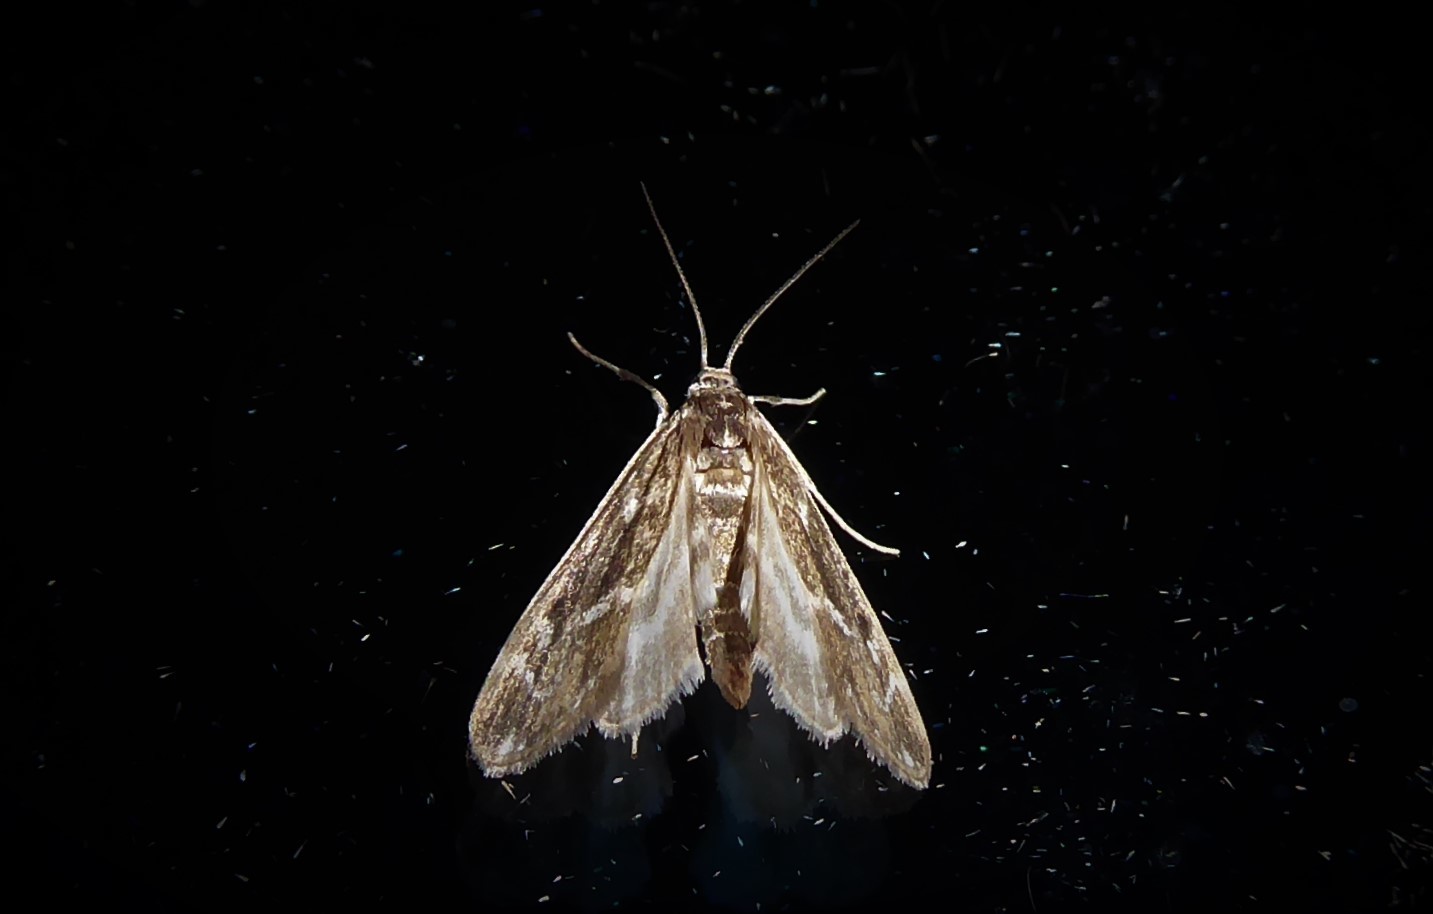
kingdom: Animalia
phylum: Arthropoda
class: Insecta
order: Lepidoptera
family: Crambidae
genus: Hygraula
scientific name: Hygraula nitens
